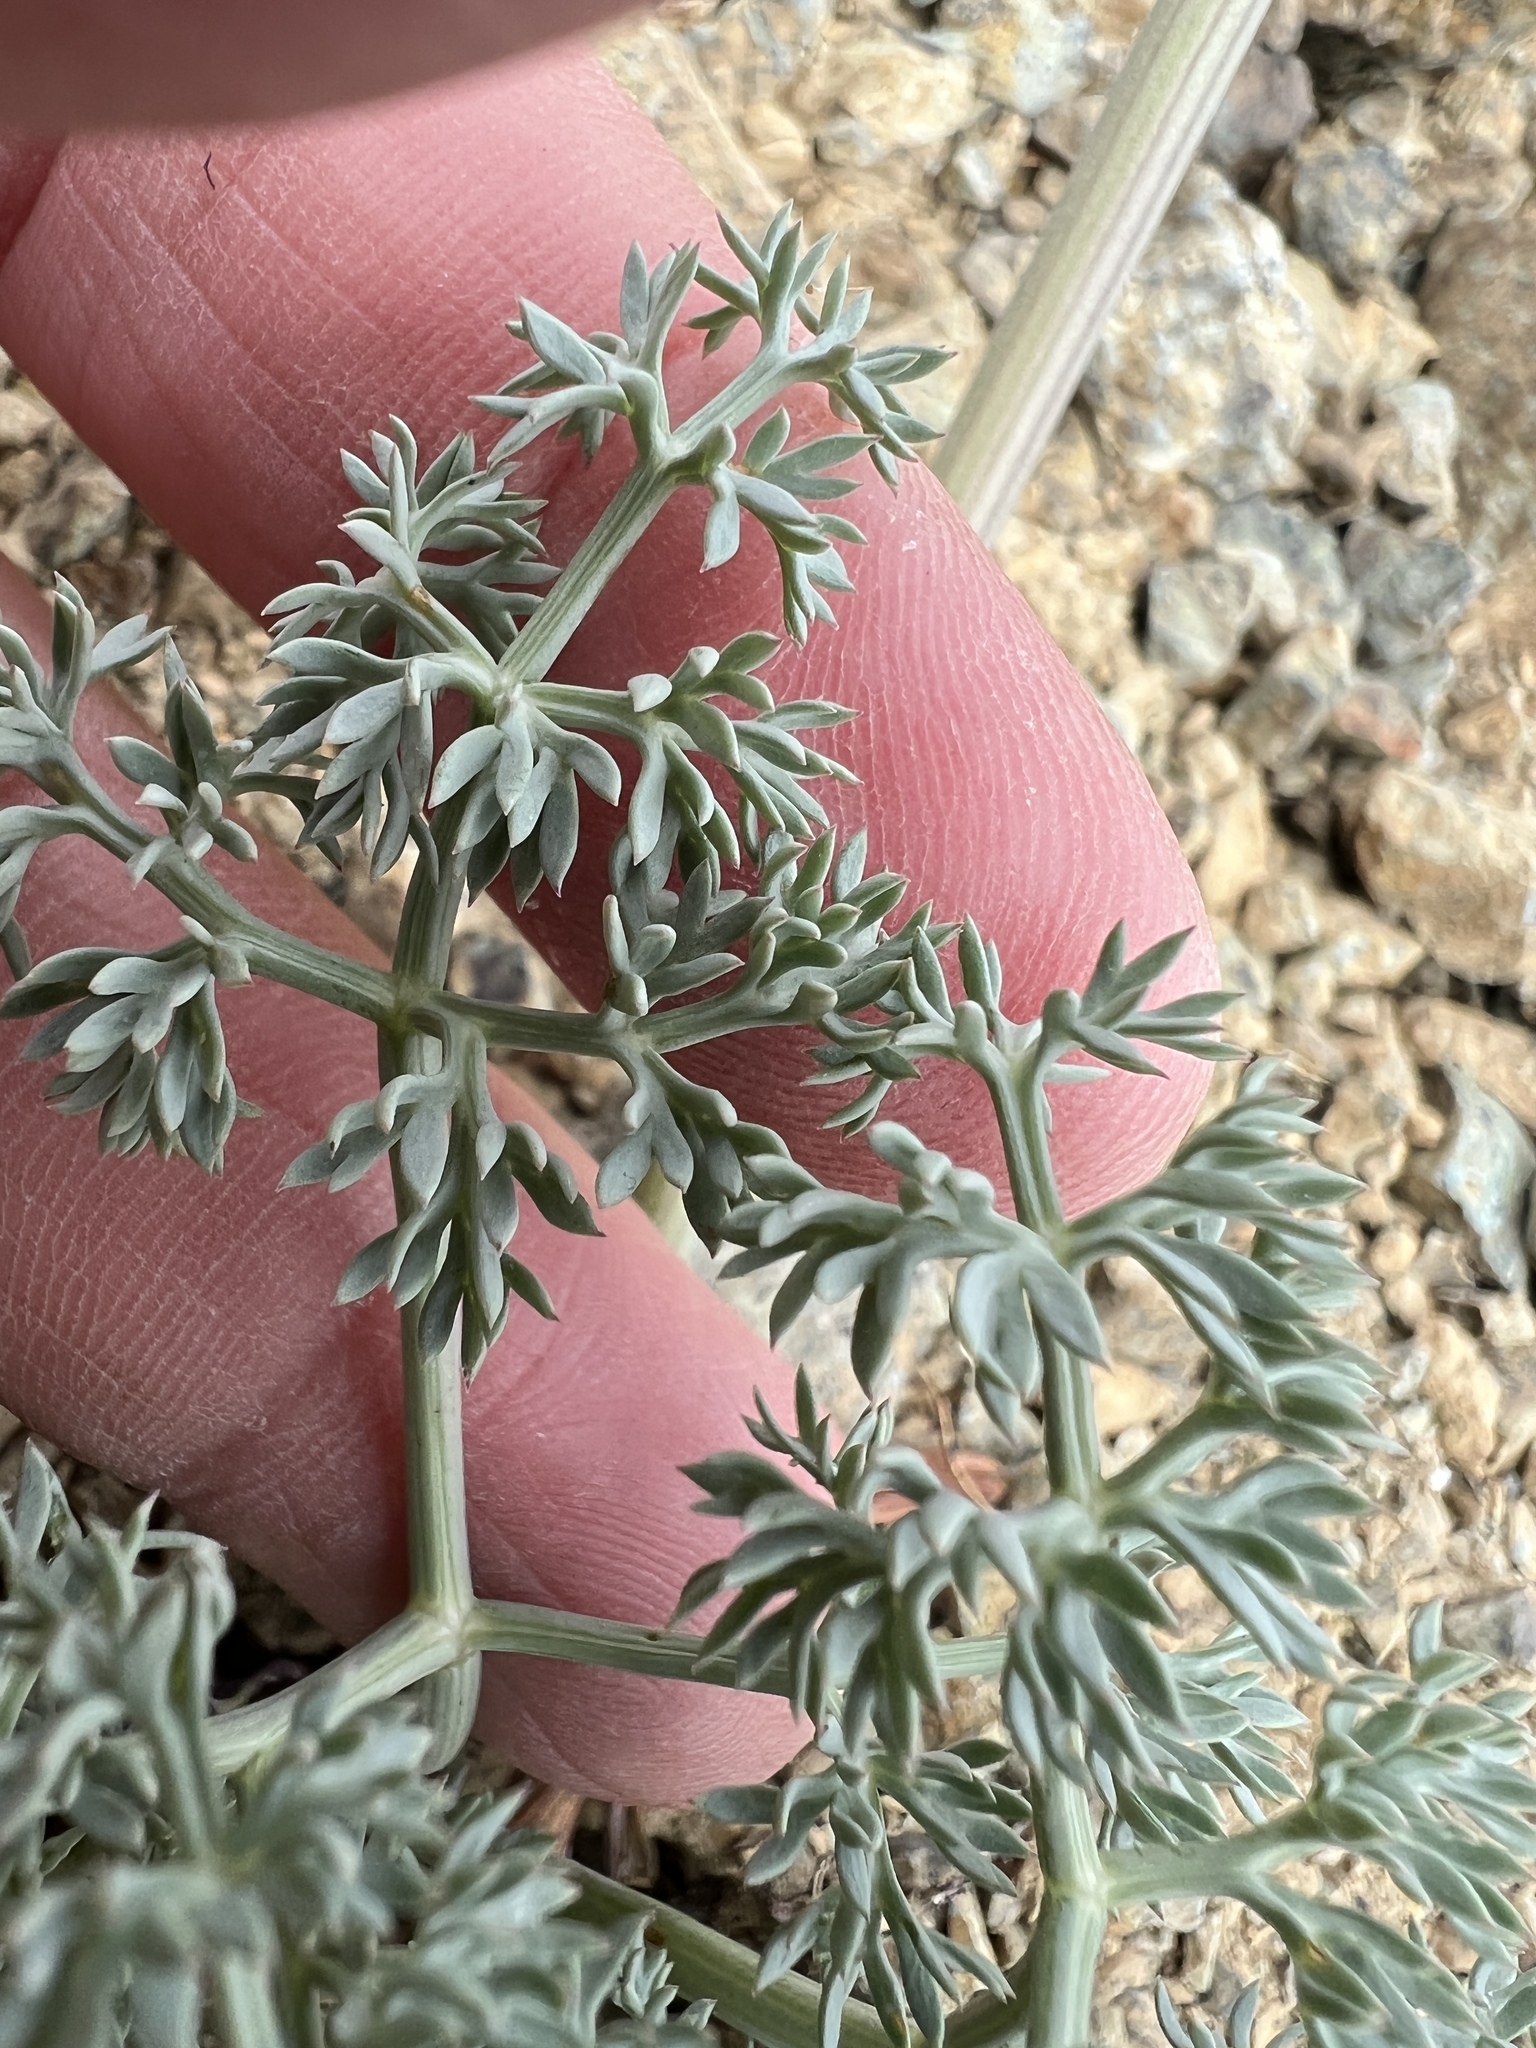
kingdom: Plantae
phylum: Tracheophyta
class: Magnoliopsida
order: Apiales
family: Apiaceae
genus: Lomatium
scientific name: Lomatium cuspidatum
